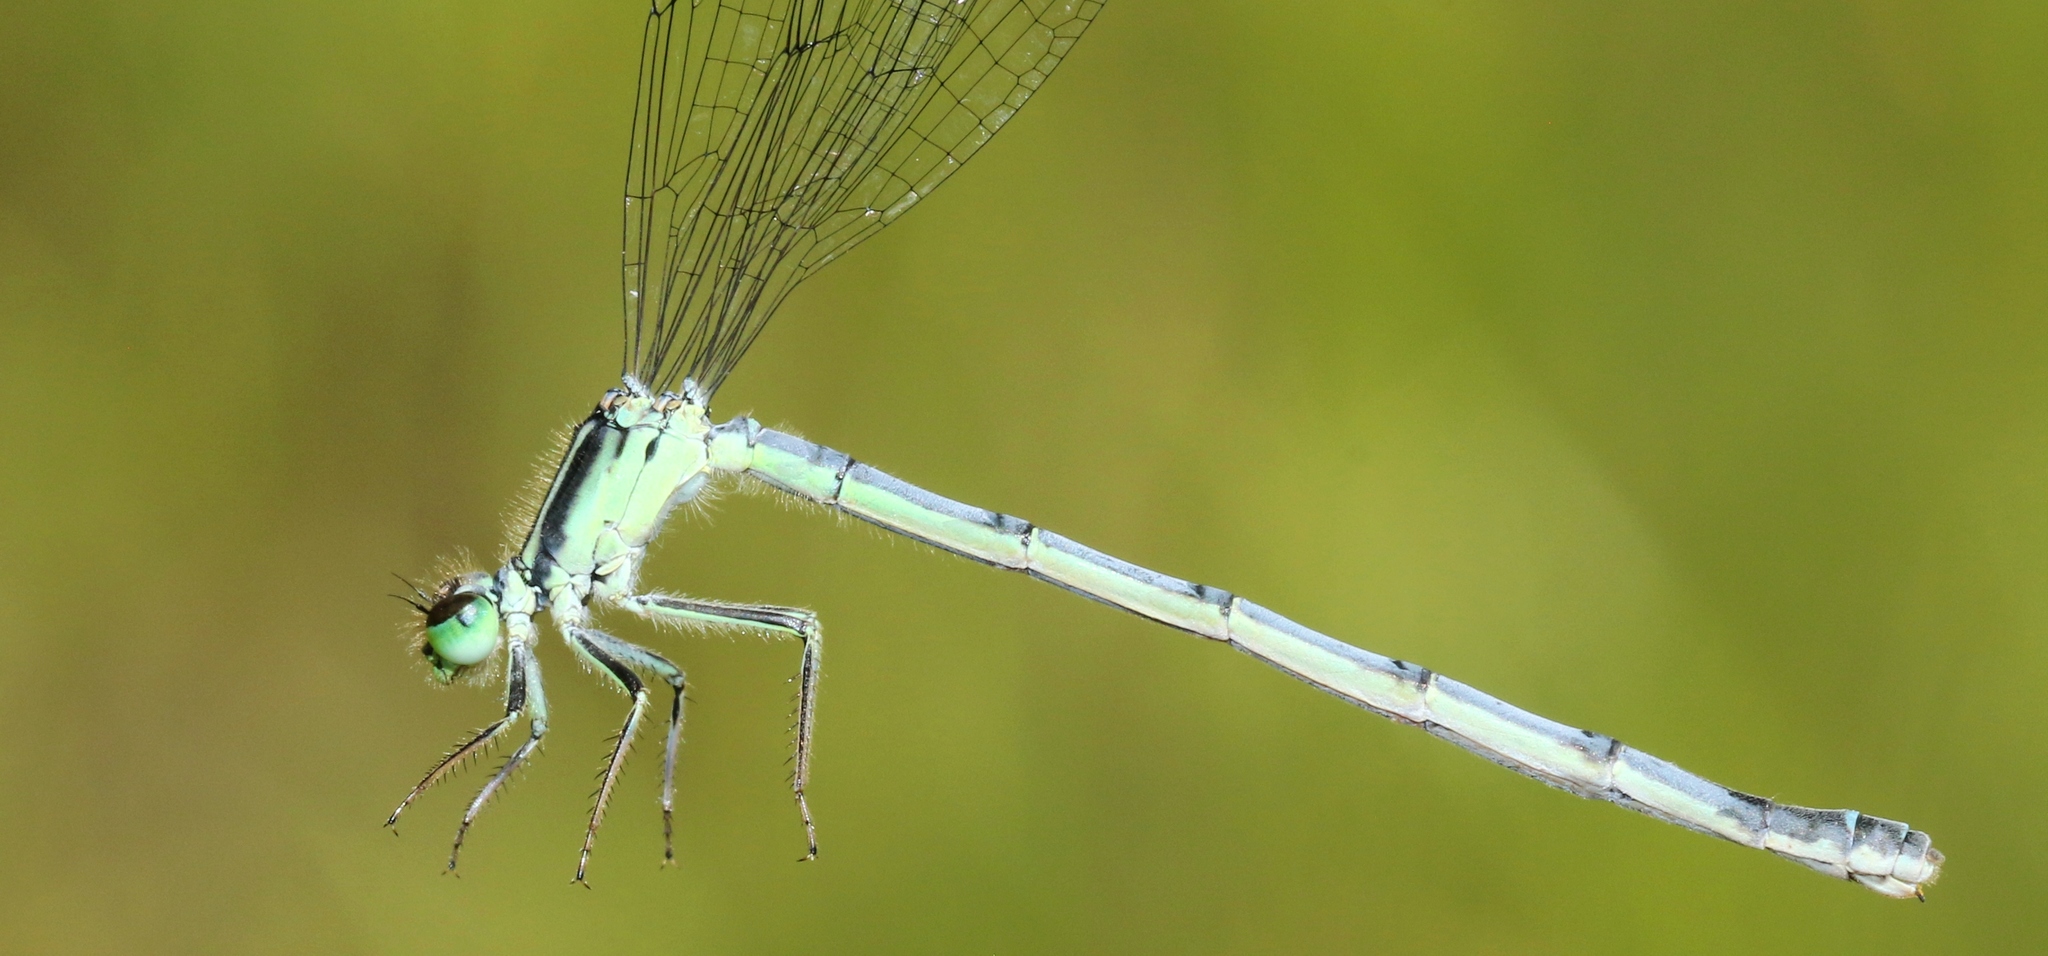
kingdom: Animalia
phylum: Arthropoda
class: Insecta
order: Odonata
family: Coenagrionidae
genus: Ischnura
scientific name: Ischnura verticalis
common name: Eastern forktail
